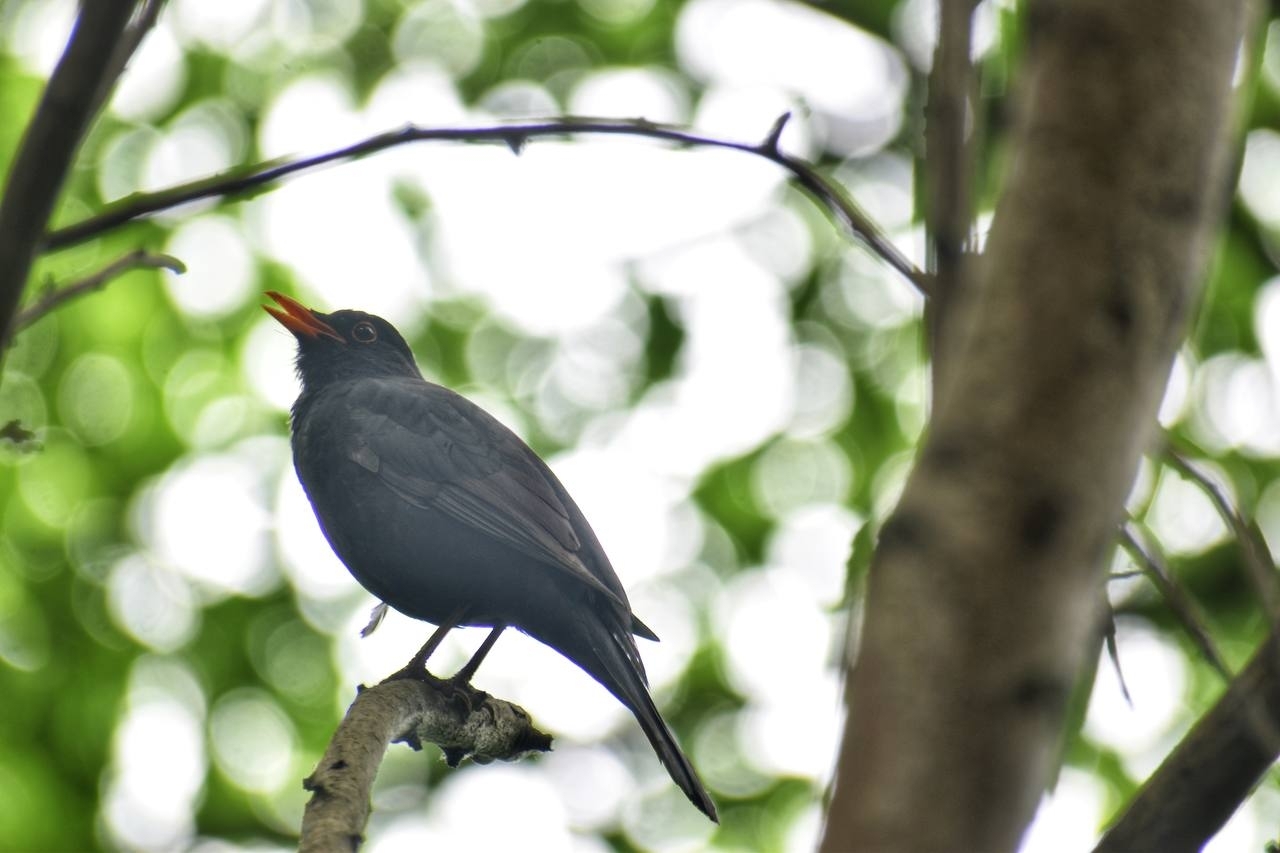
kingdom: Animalia
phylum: Chordata
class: Aves
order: Passeriformes
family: Turdidae
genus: Turdus
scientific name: Turdus merula
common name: Common blackbird
